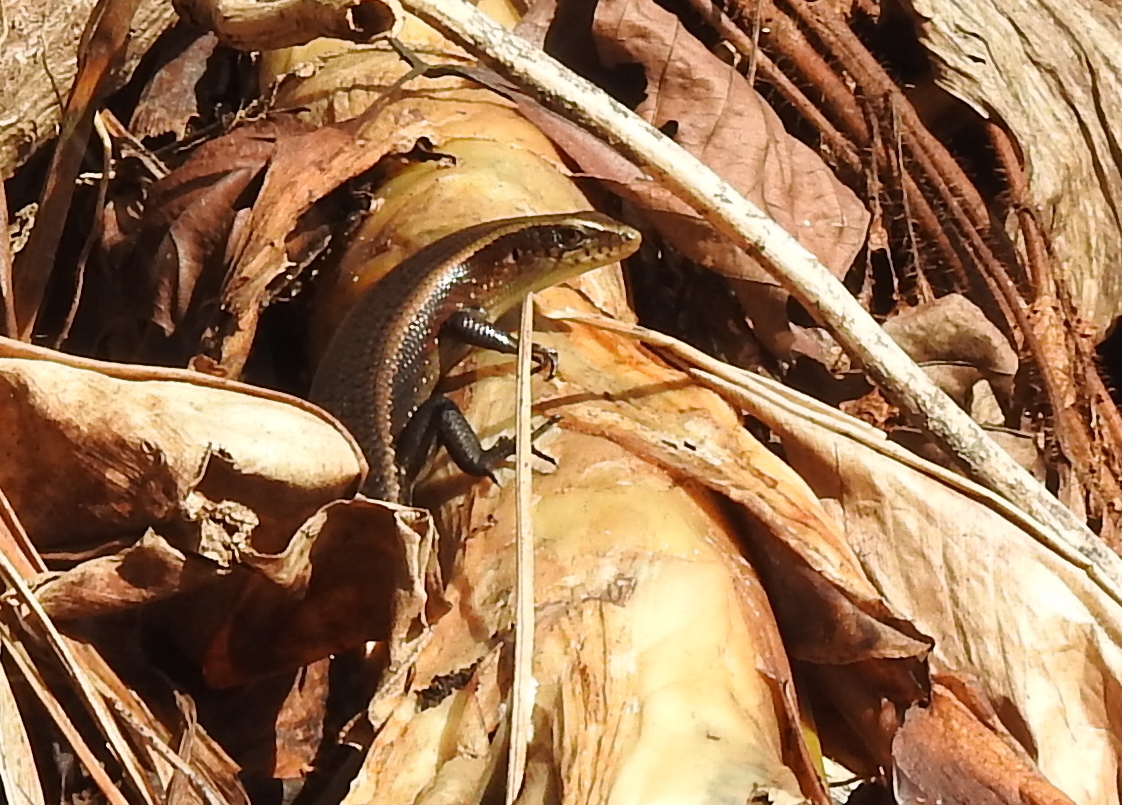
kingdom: Animalia
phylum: Chordata
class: Squamata
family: Scincidae
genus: Eutropis
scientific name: Eutropis multifasciata
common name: Common mabuya
